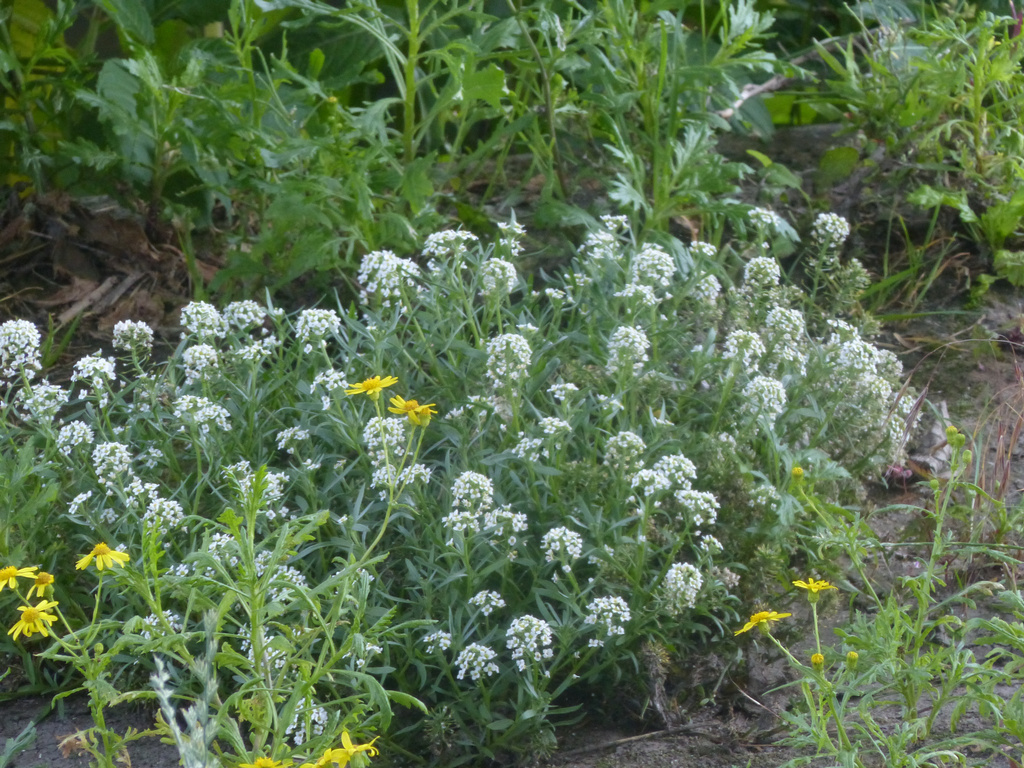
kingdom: Plantae
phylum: Tracheophyta
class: Magnoliopsida
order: Brassicales
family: Brassicaceae
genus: Lobularia
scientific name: Lobularia maritima
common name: Sweet alison
